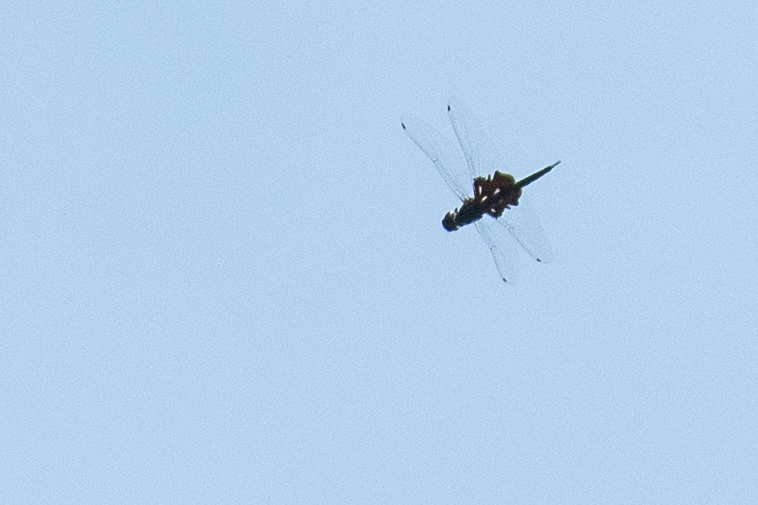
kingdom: Animalia
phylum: Arthropoda
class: Insecta
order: Odonata
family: Libellulidae
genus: Tramea
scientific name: Tramea lacerata
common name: Black saddlebags
